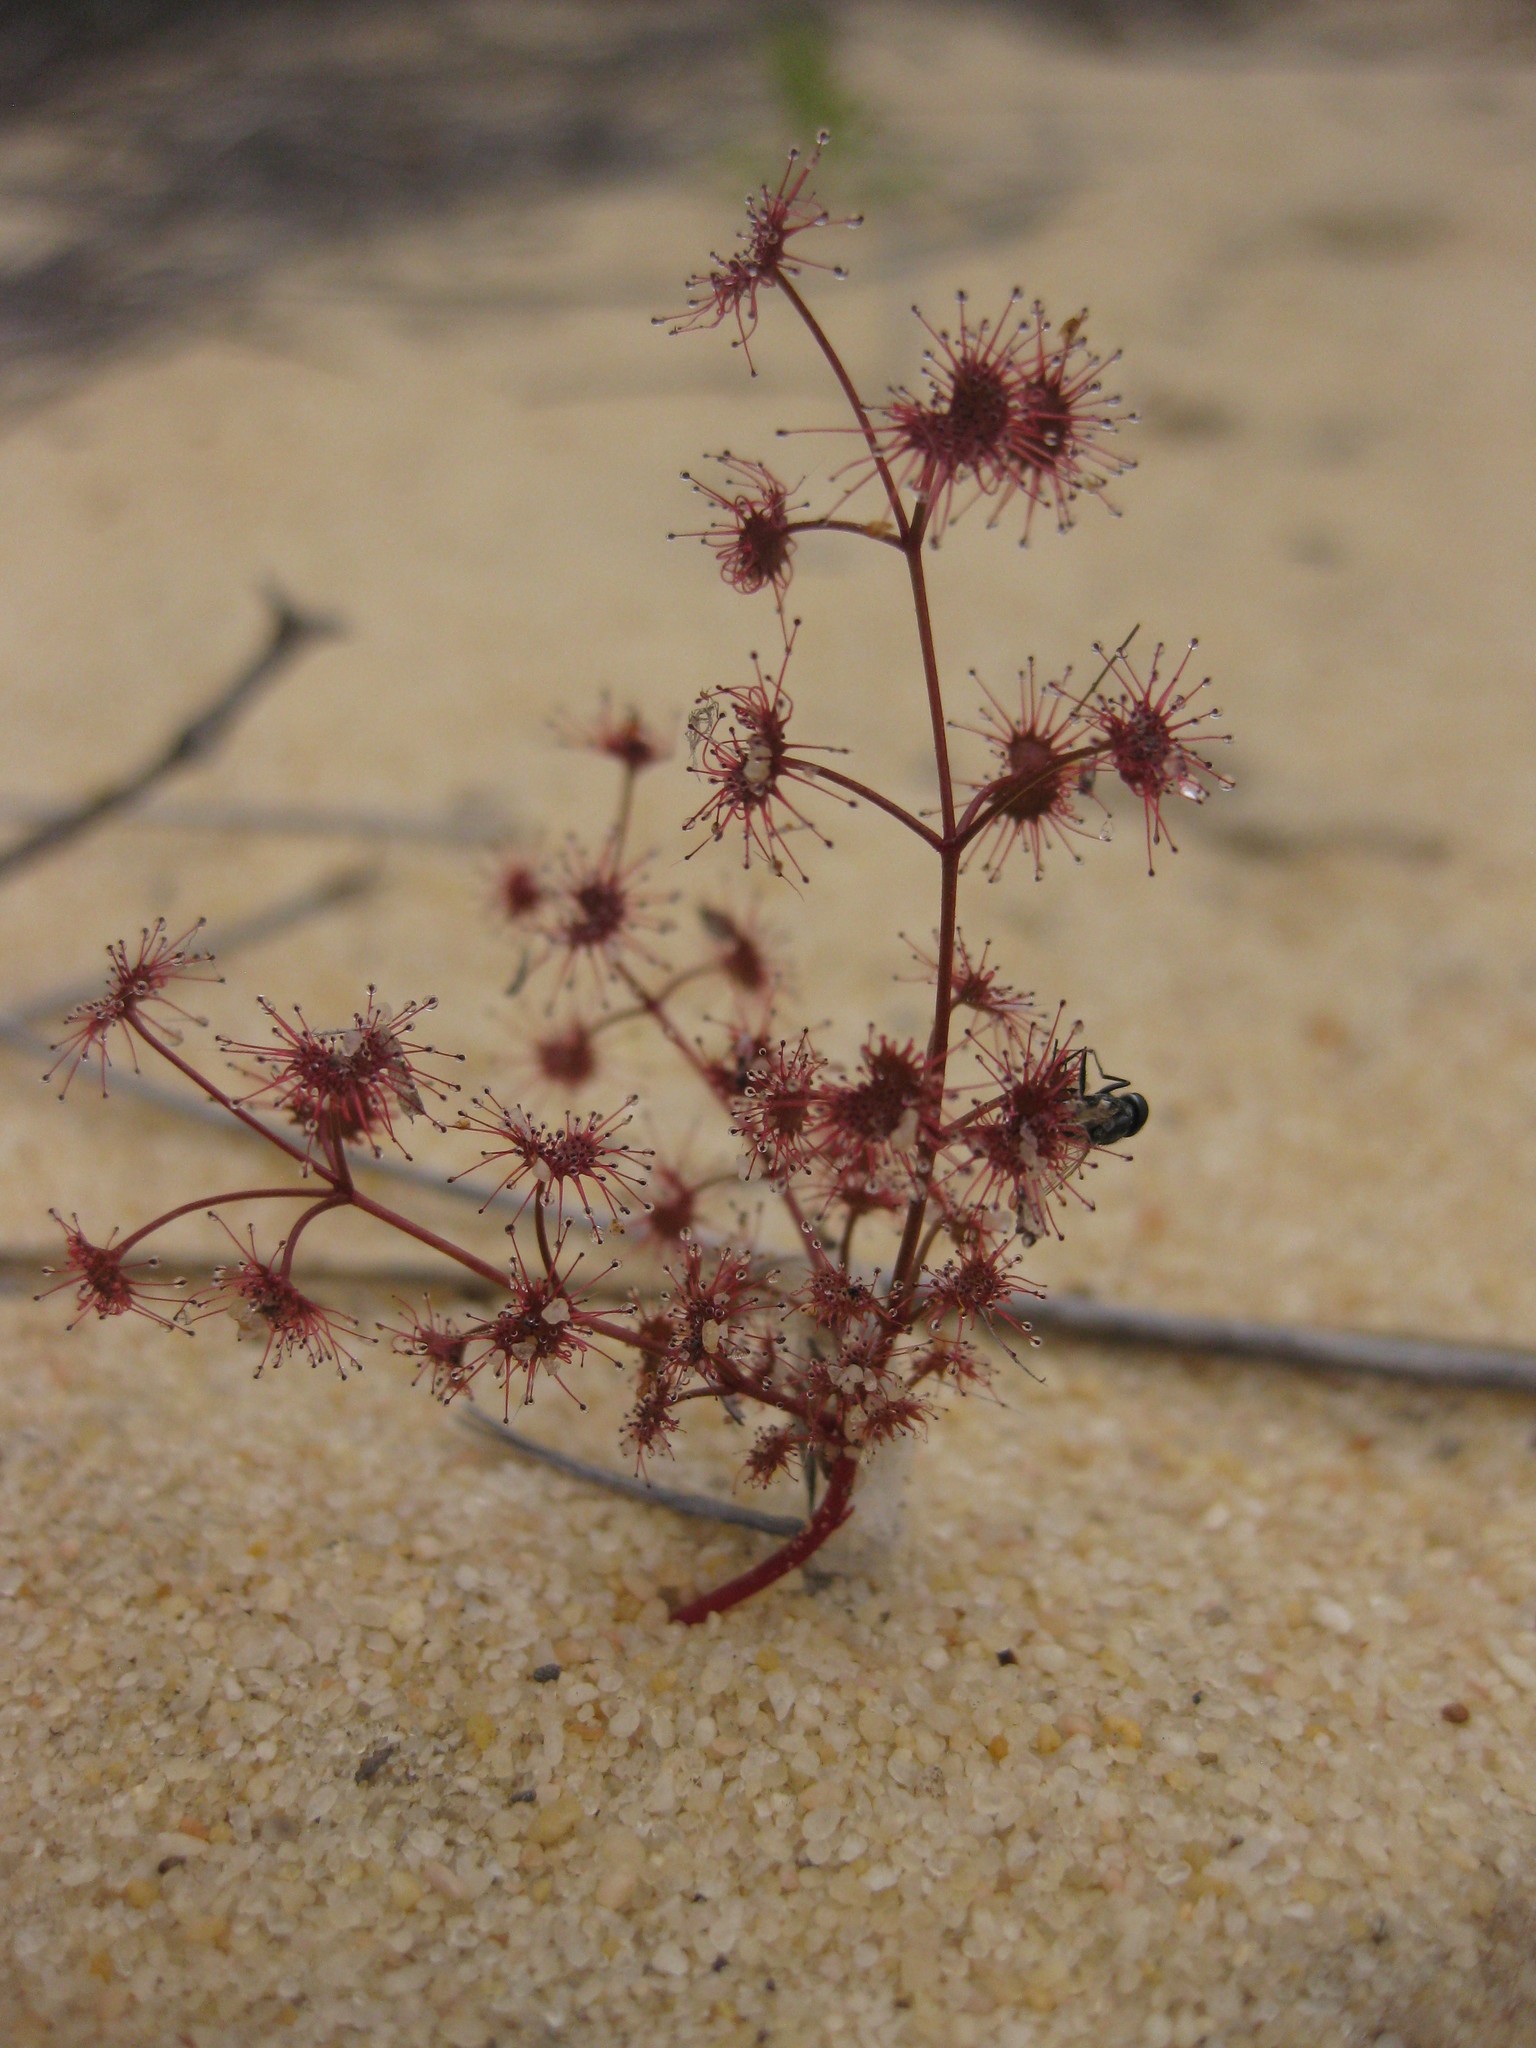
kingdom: Plantae
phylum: Tracheophyta
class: Magnoliopsida
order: Caryophyllales
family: Droseraceae
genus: Drosera
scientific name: Drosera stolonifera
